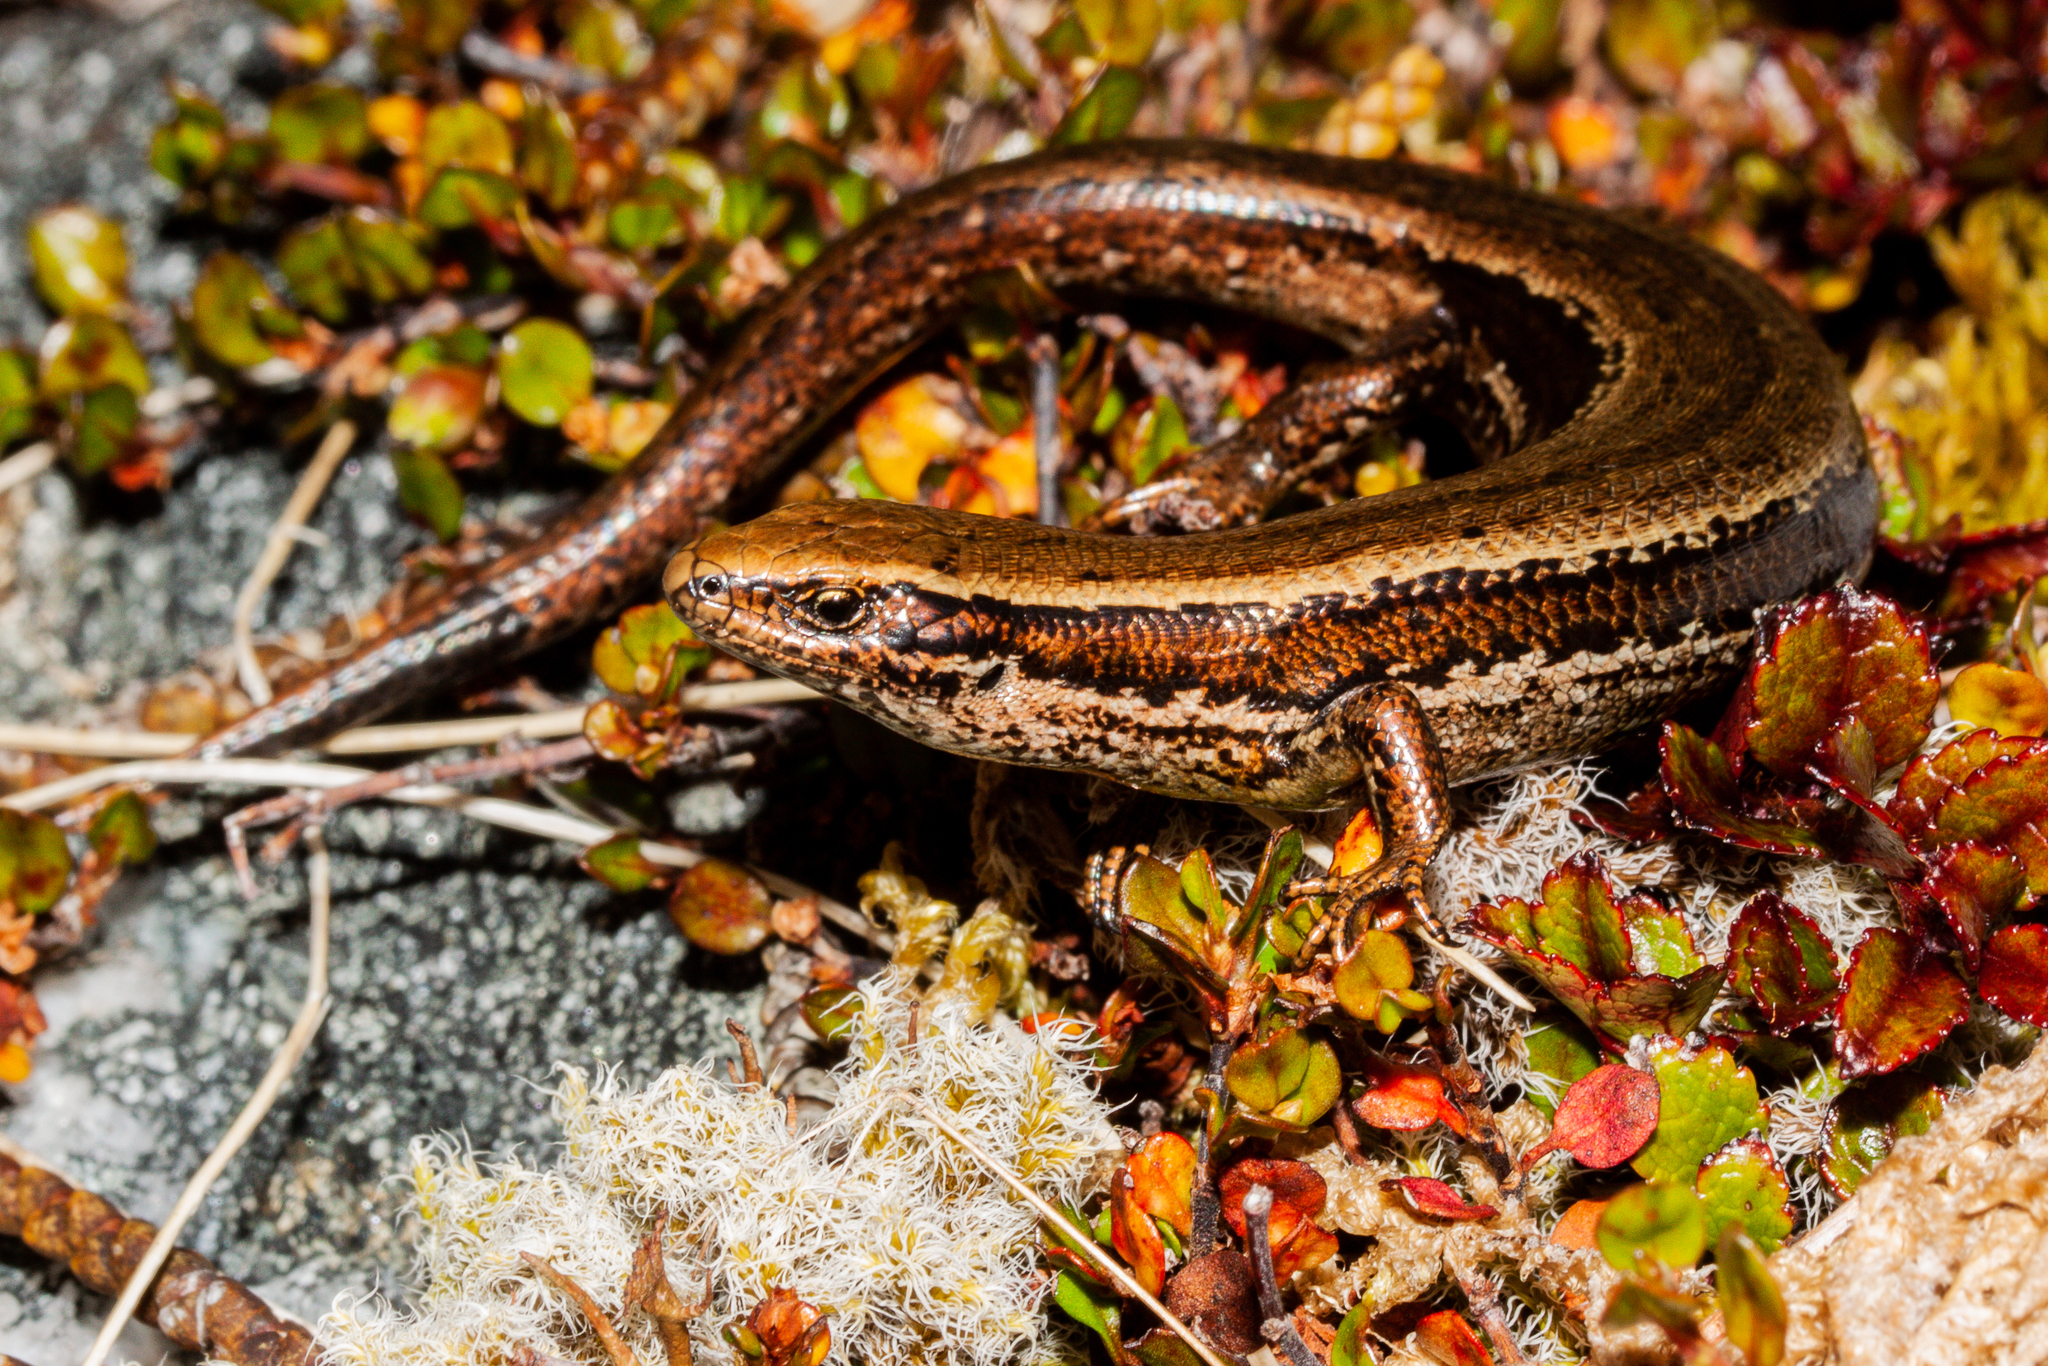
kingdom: Animalia
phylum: Chordata
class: Squamata
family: Scincidae
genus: Oligosoma
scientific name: Oligosoma inconspicuum
